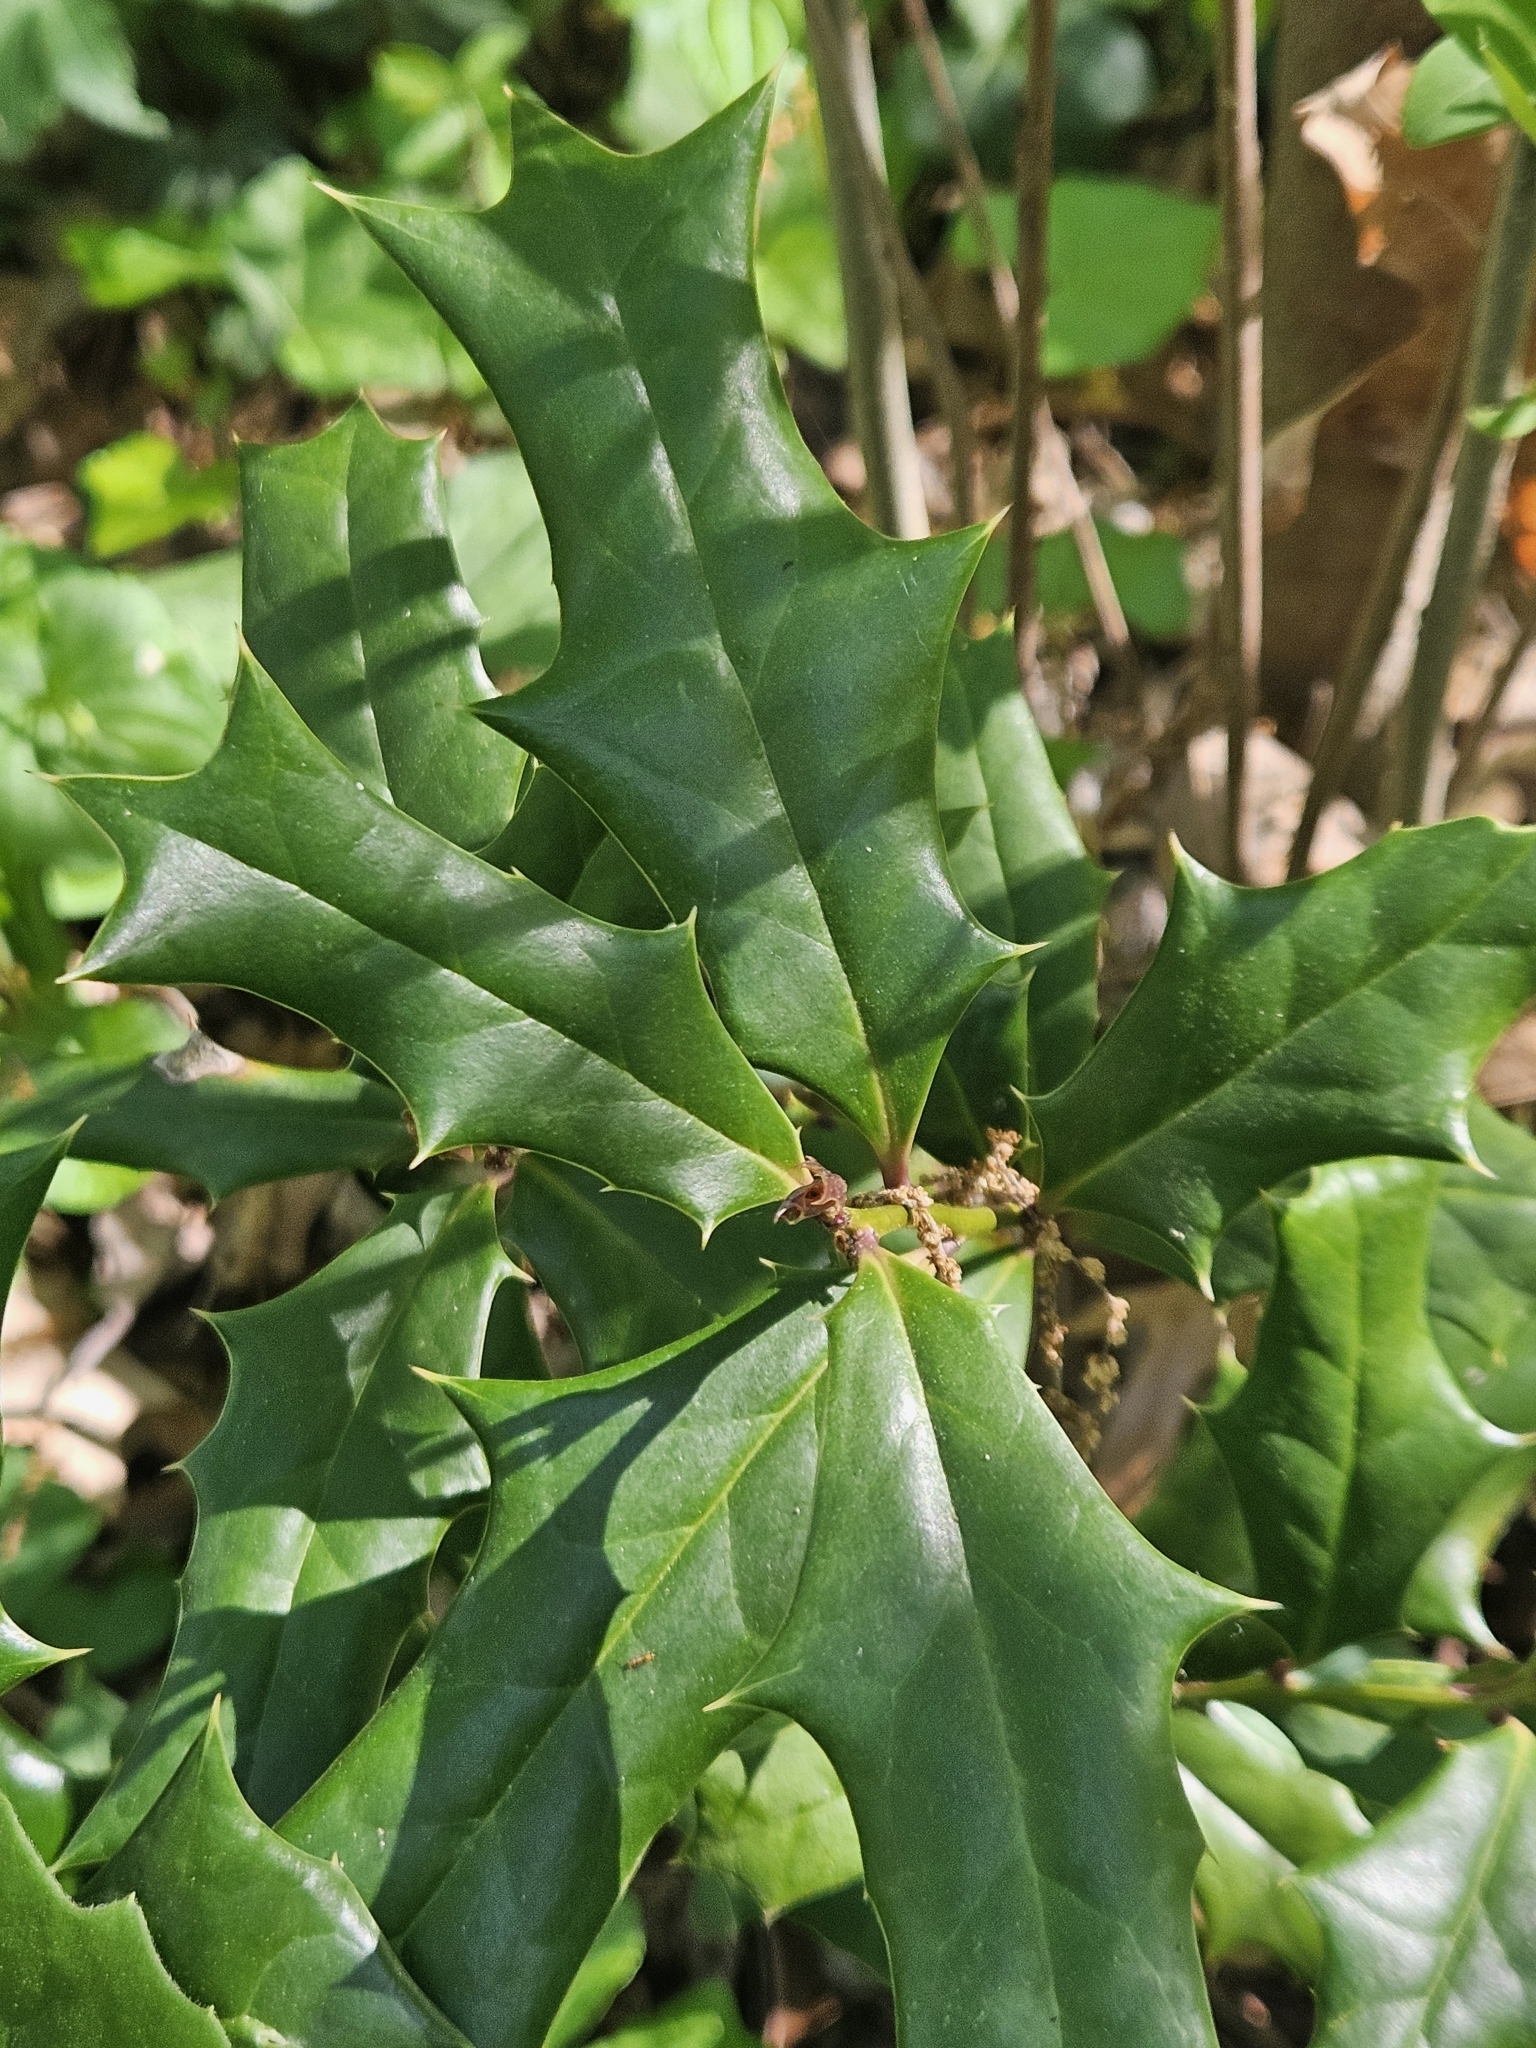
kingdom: Plantae
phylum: Tracheophyta
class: Magnoliopsida
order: Aquifoliales
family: Aquifoliaceae
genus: Ilex
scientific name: Ilex cornuta
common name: Chinese holly
